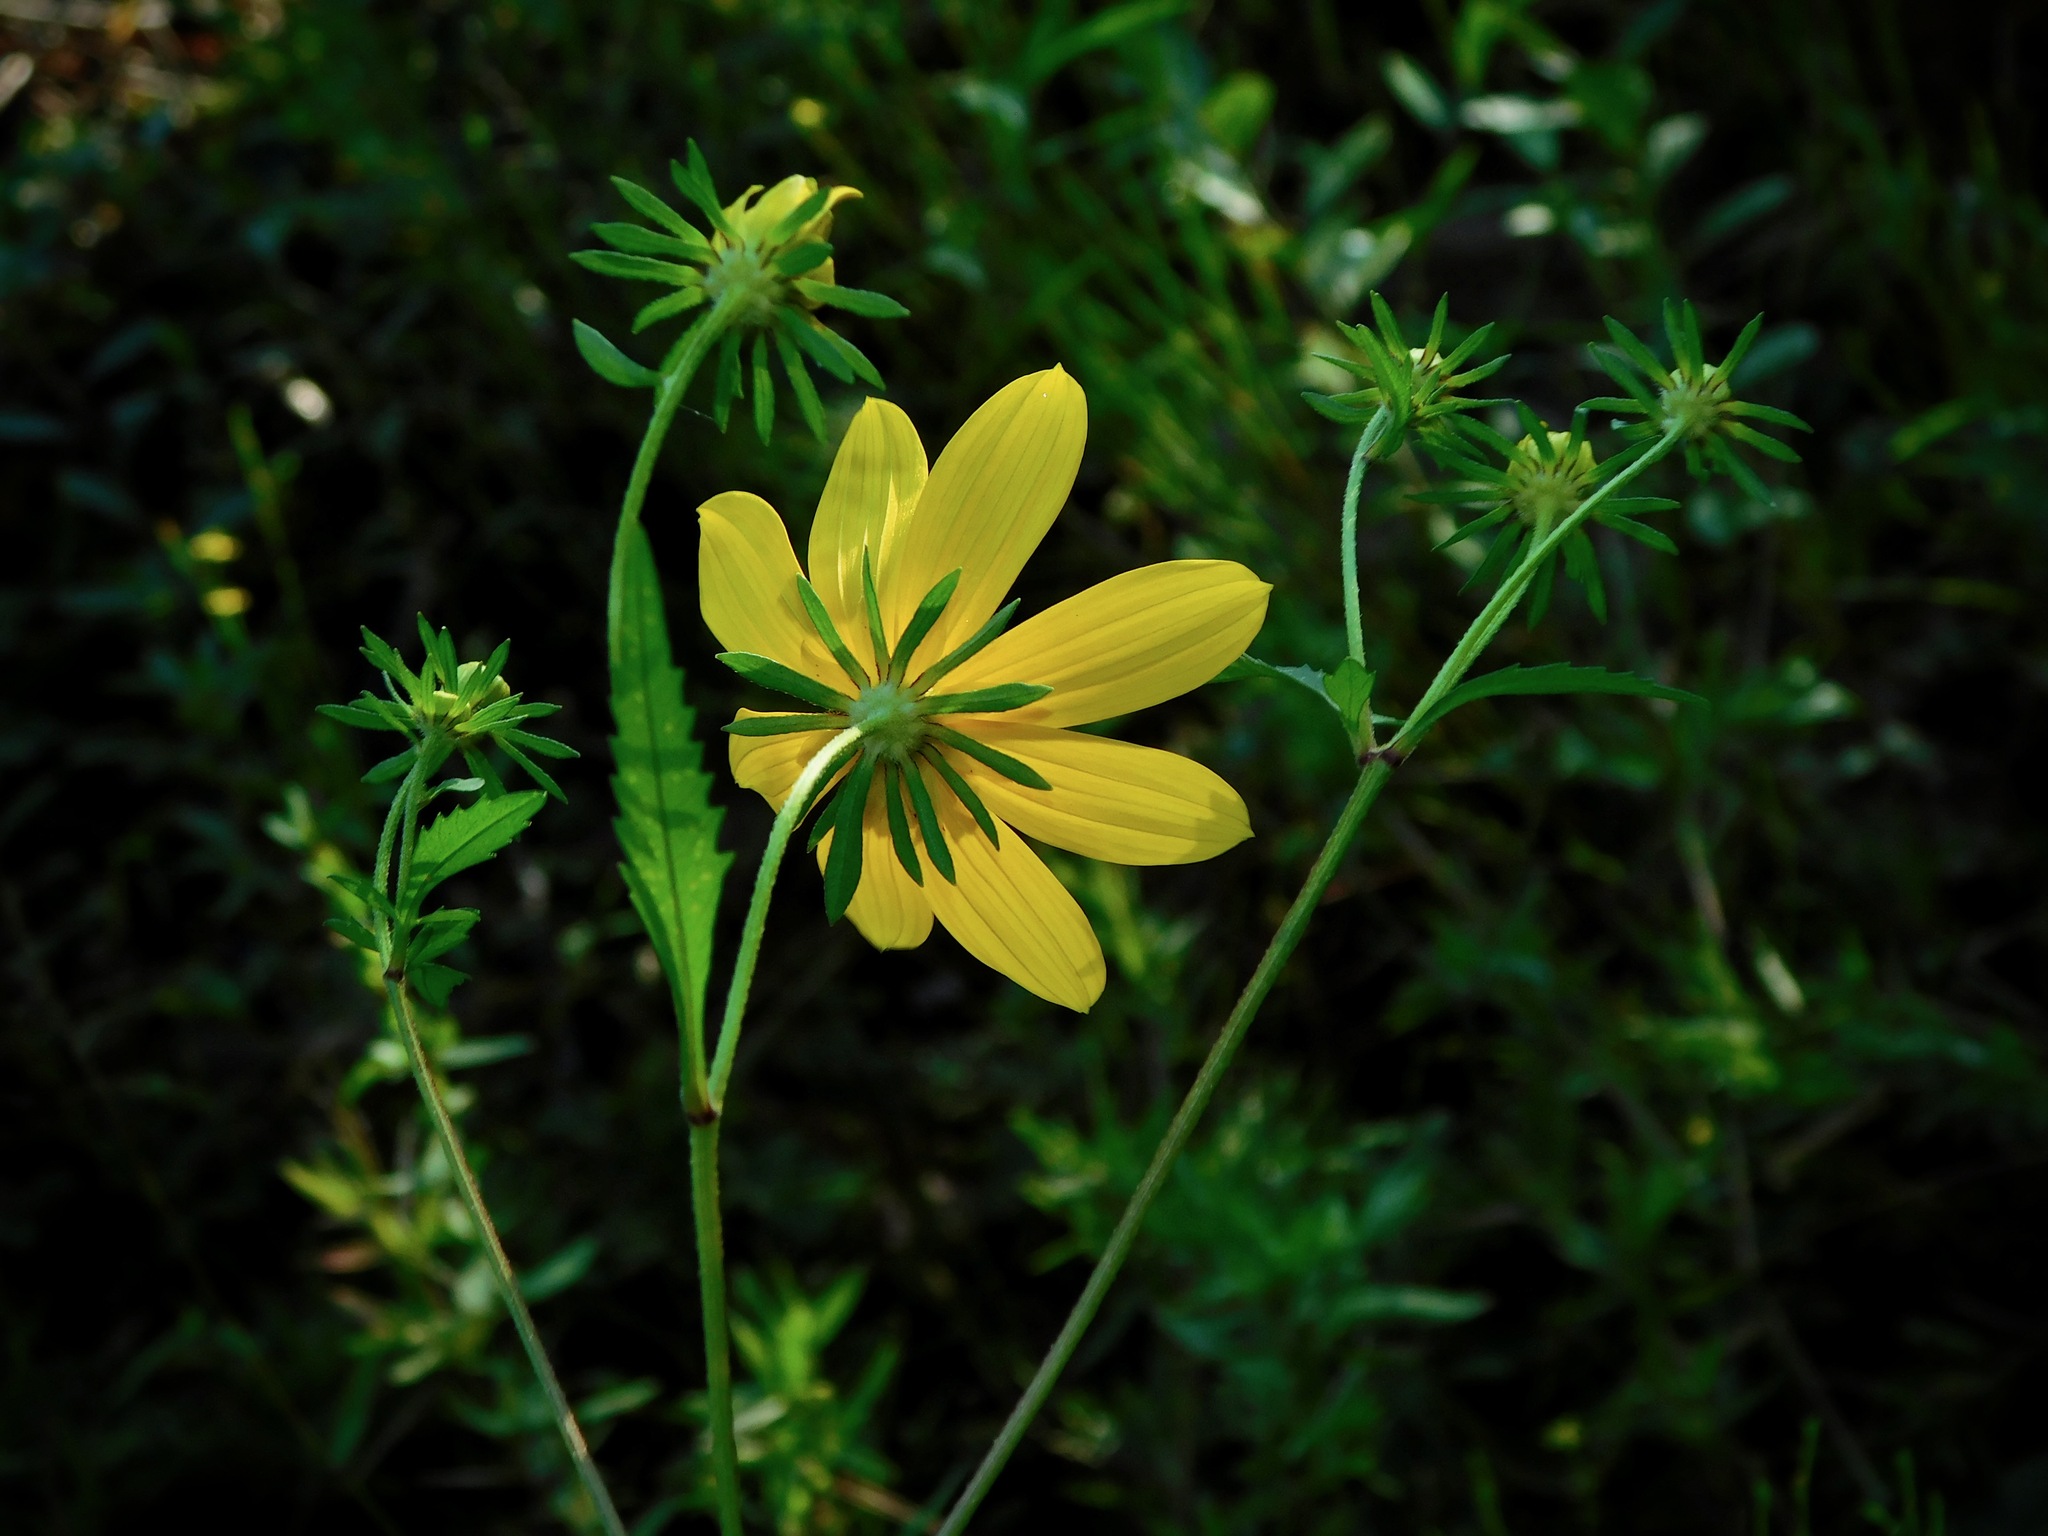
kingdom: Plantae
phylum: Tracheophyta
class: Magnoliopsida
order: Asterales
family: Asteraceae
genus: Bidens
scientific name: Bidens polylepis
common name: Awnless beggarticks
